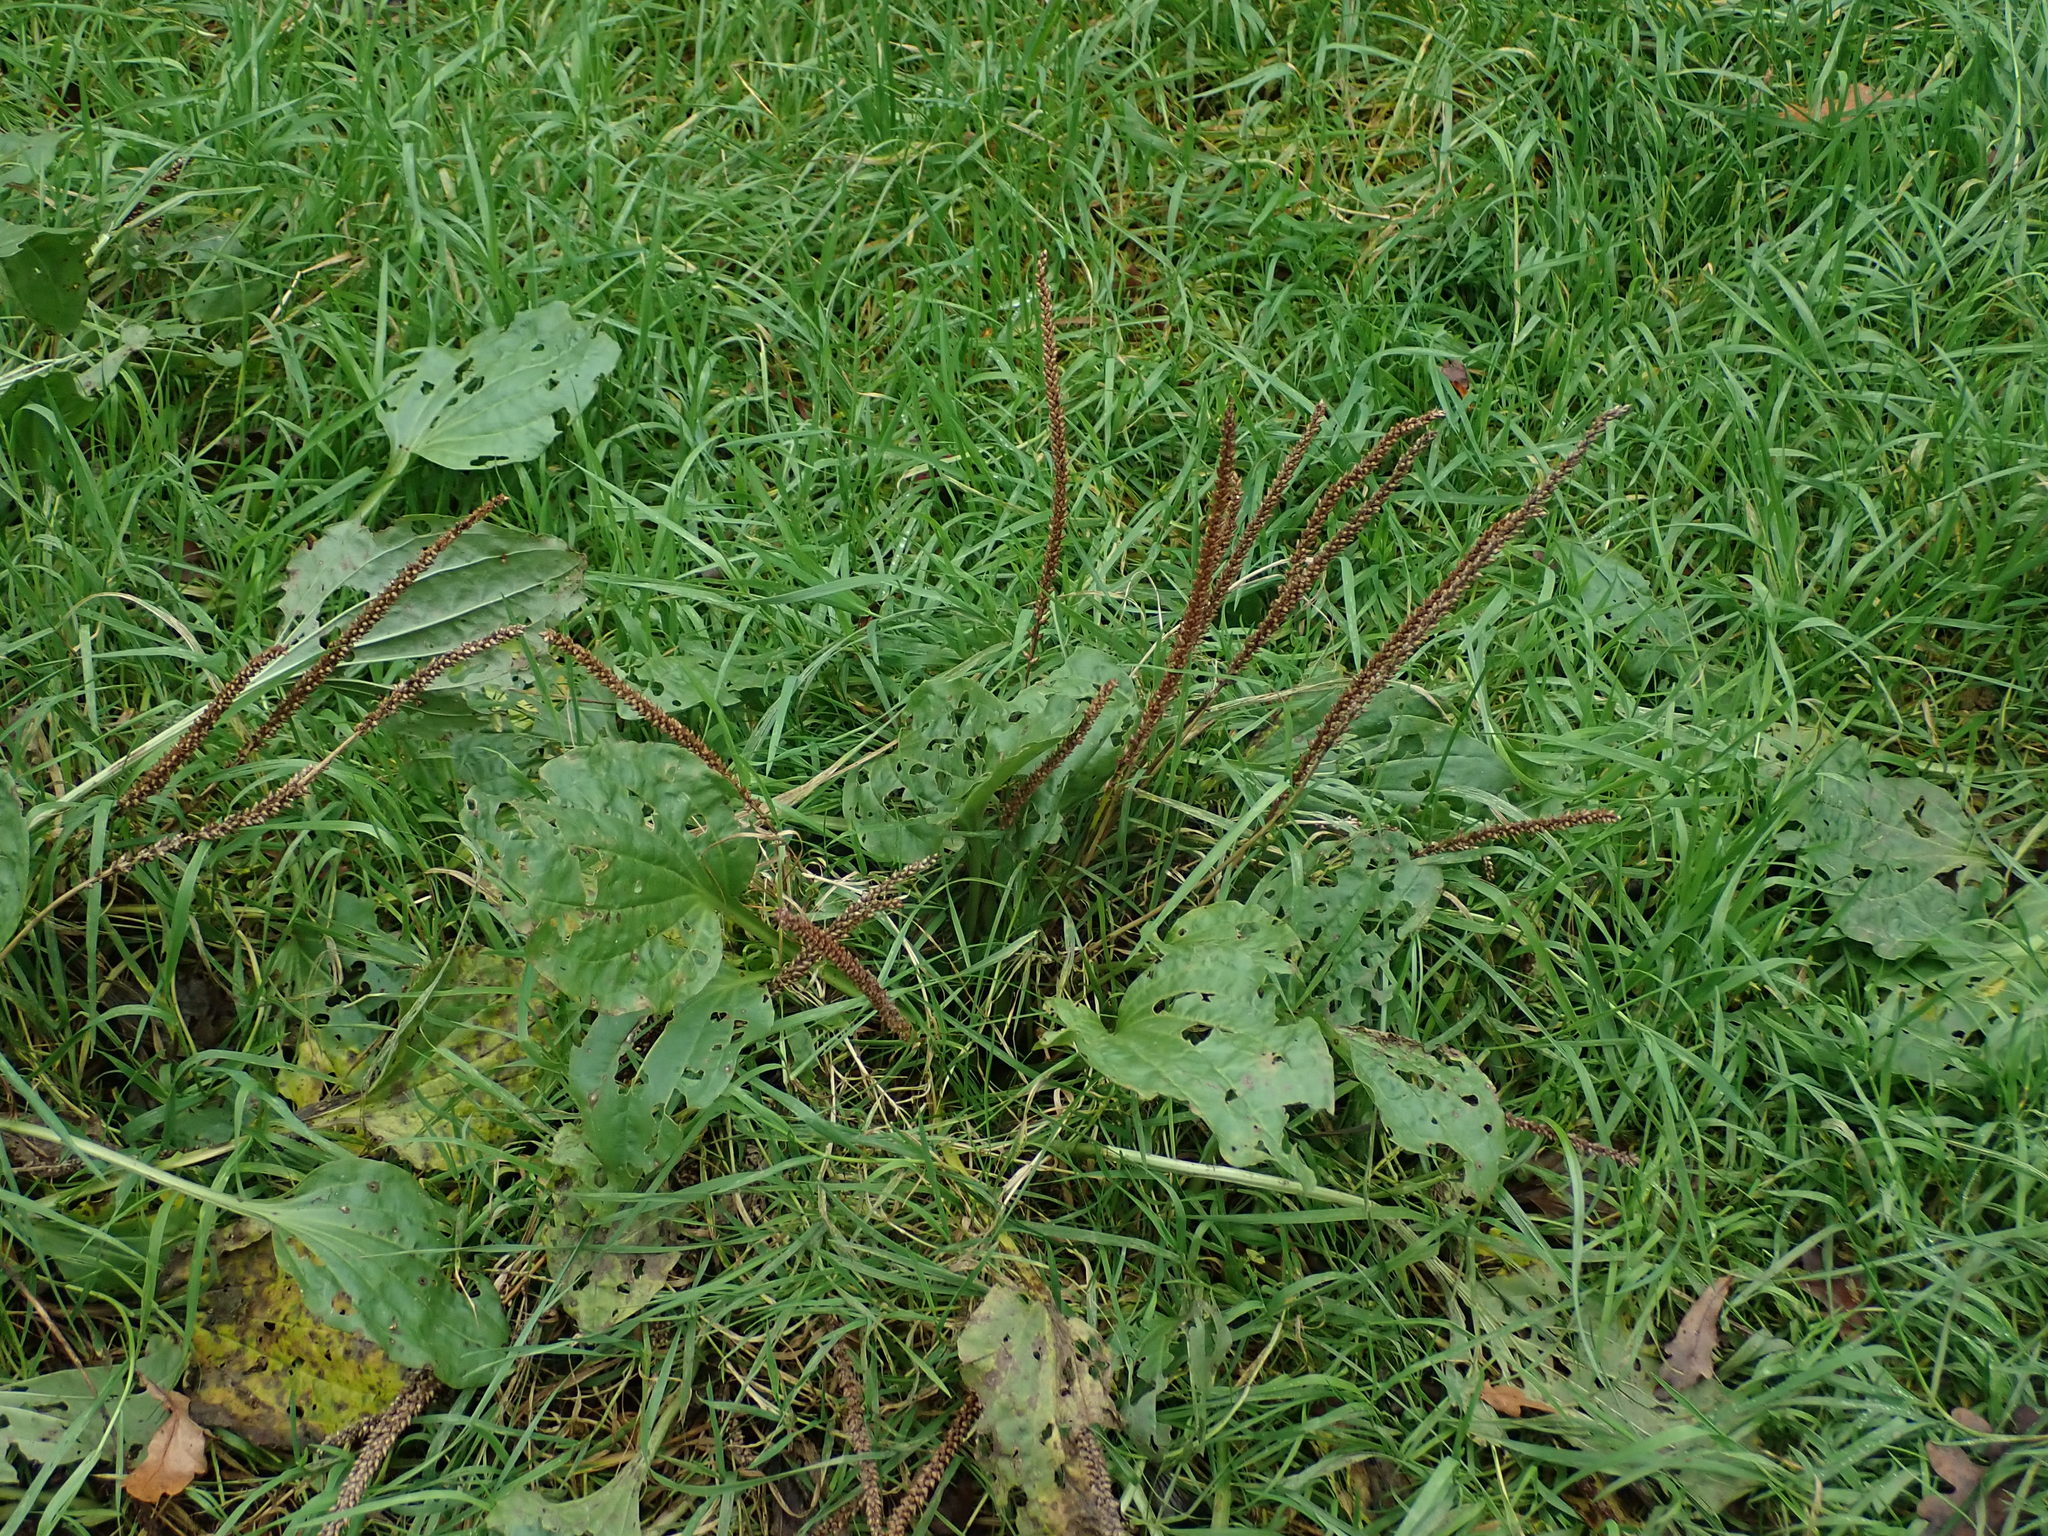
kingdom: Plantae
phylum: Tracheophyta
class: Magnoliopsida
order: Lamiales
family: Plantaginaceae
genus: Plantago
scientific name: Plantago major
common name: Common plantain
